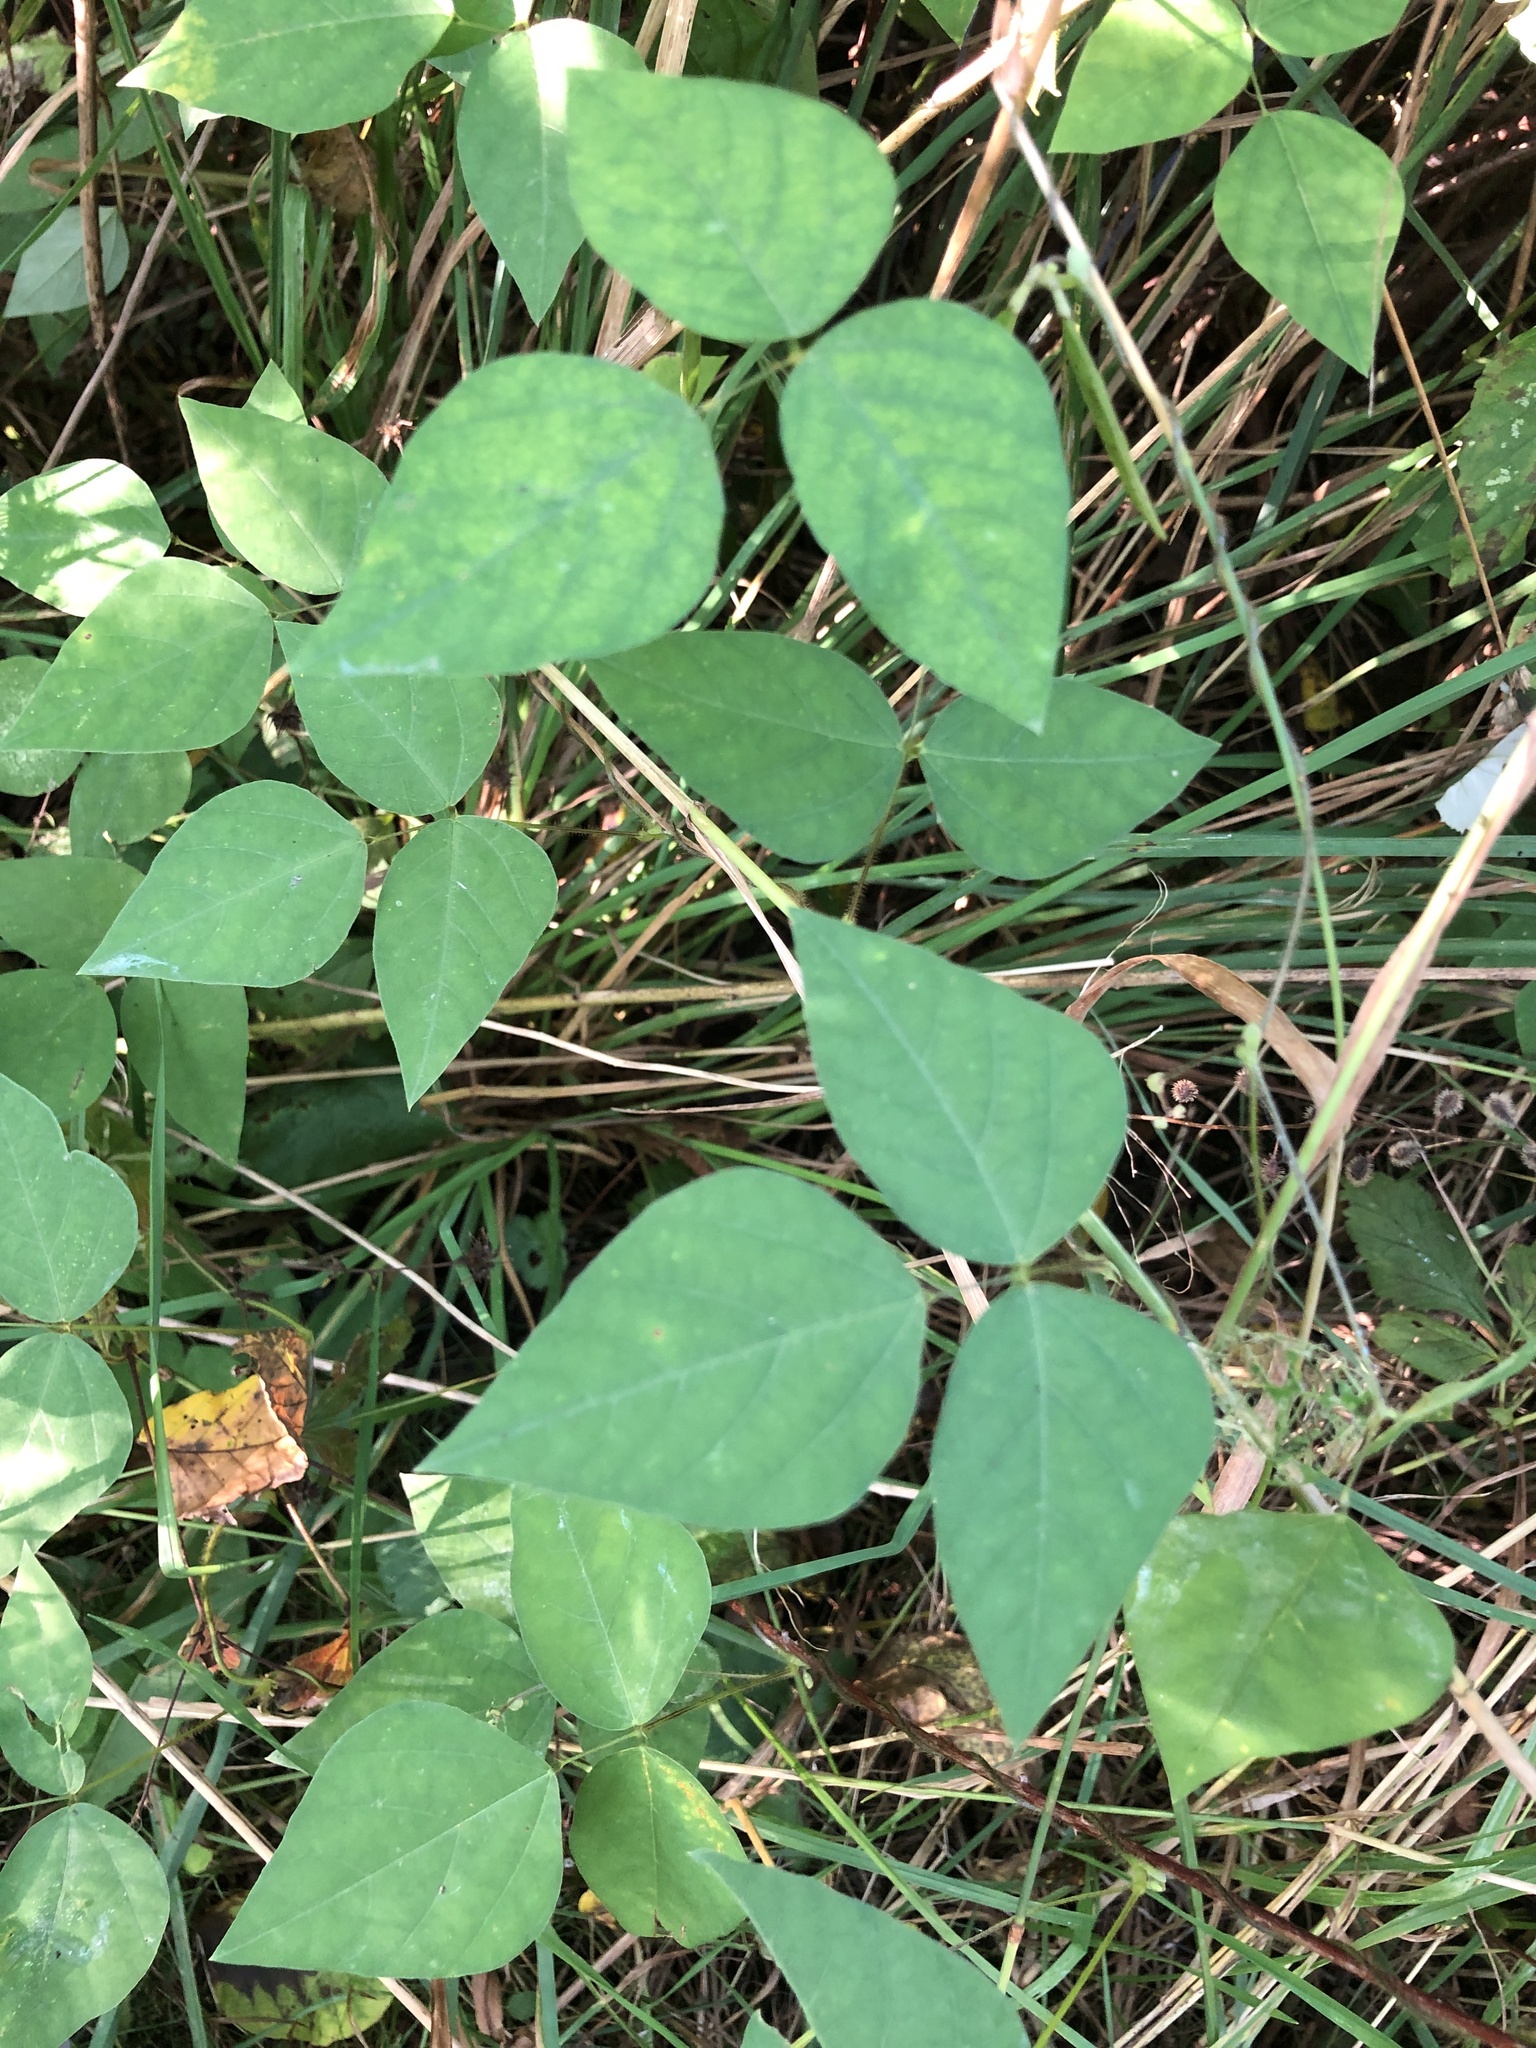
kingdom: Plantae
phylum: Tracheophyta
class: Magnoliopsida
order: Fabales
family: Fabaceae
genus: Amphicarpaea
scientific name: Amphicarpaea bracteata
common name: American hog peanut
